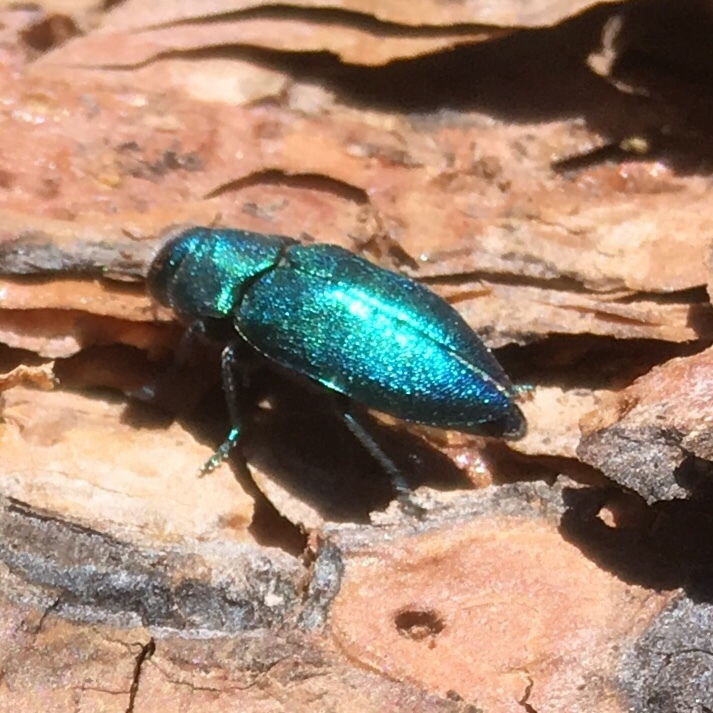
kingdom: Animalia
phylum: Arthropoda
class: Insecta
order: Coleoptera
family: Buprestidae
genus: Phaenops
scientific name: Phaenops gentilis
